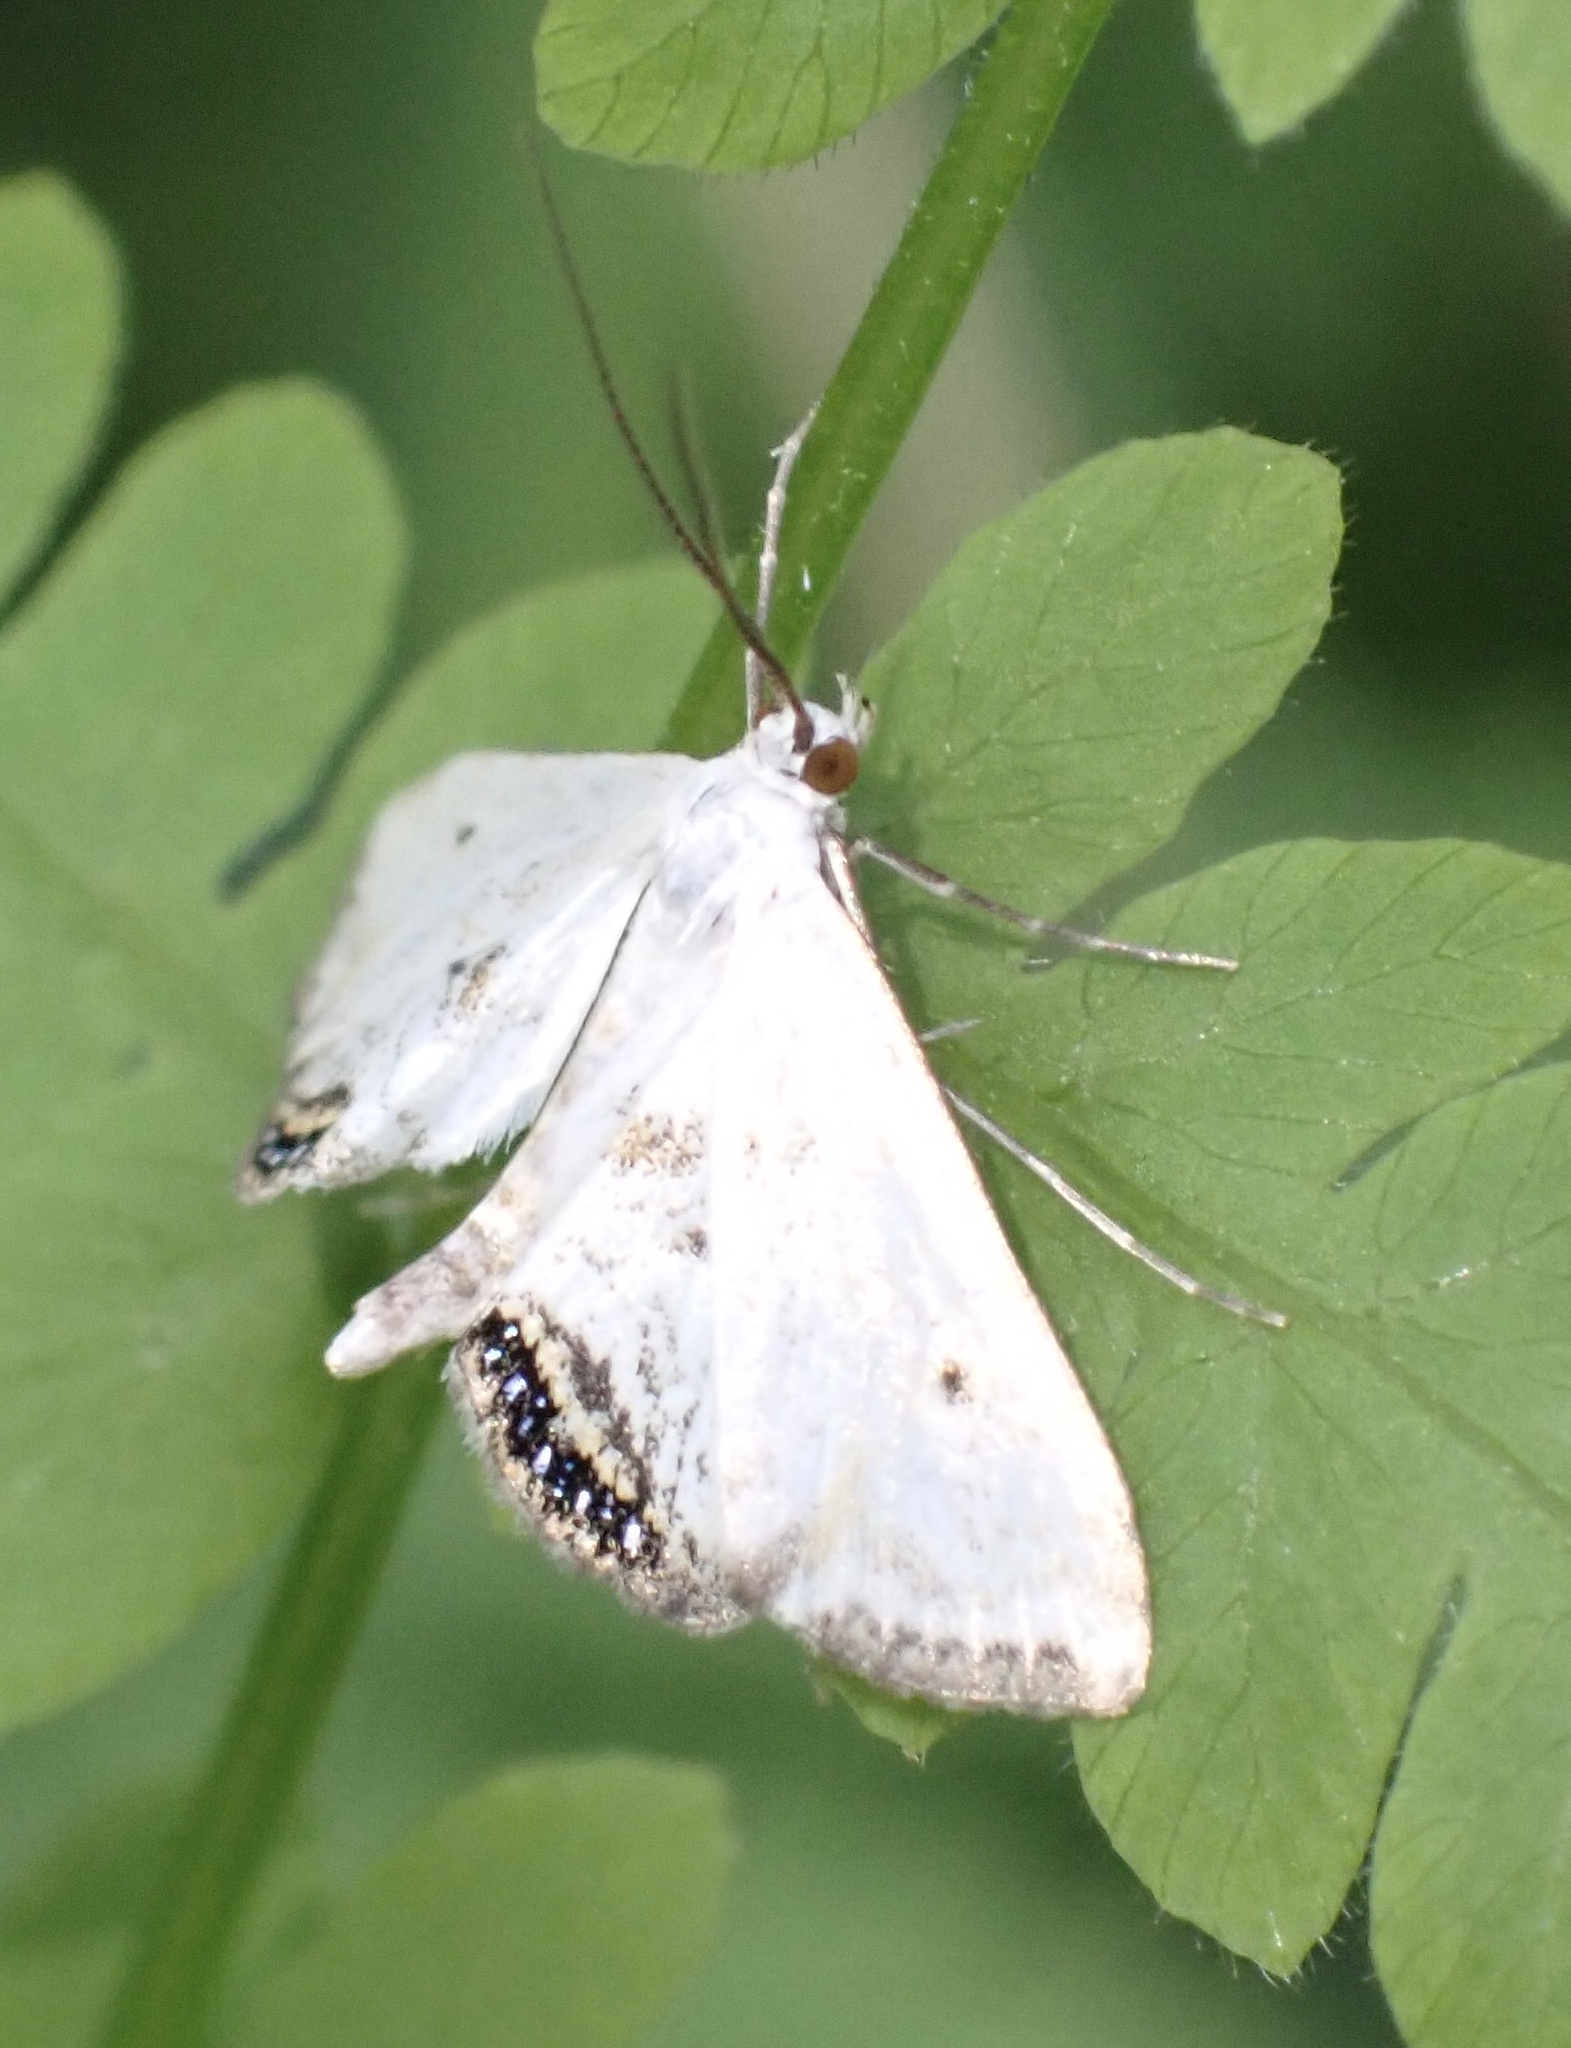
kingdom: Animalia
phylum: Arthropoda
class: Insecta
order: Lepidoptera
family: Crambidae
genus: Cataclysta
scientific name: Cataclysta lemnata
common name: Small china-mark
